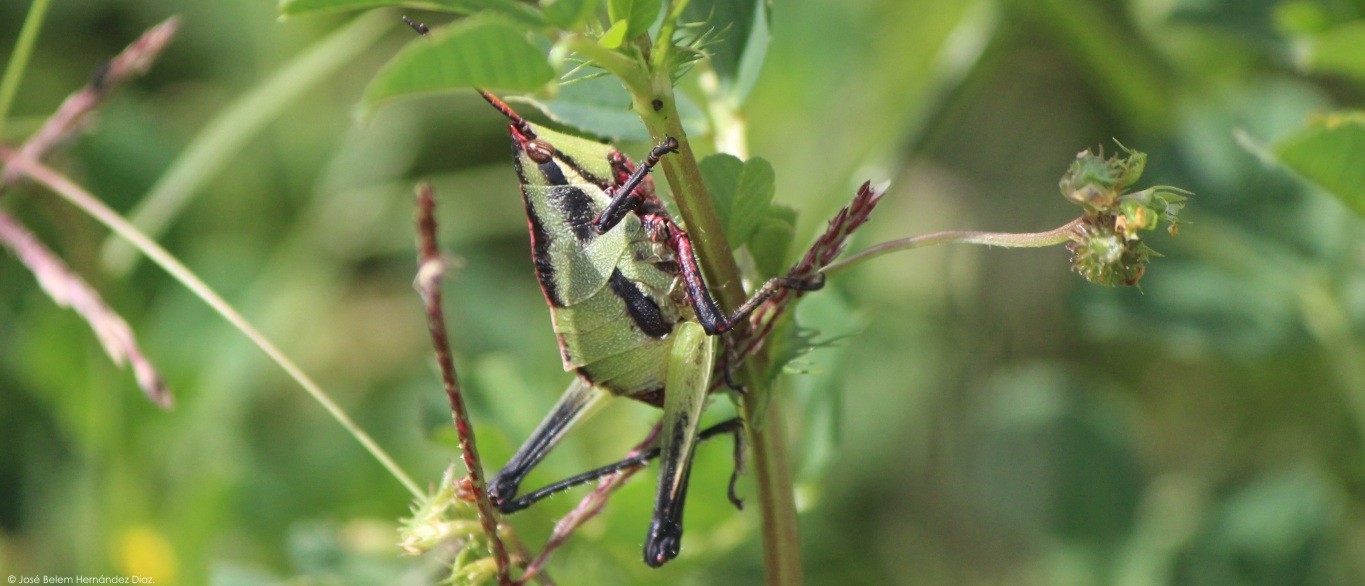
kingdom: Animalia
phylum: Arthropoda
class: Insecta
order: Orthoptera
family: Pyrgomorphidae
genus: Sphenarium
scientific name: Sphenarium purpurascens
